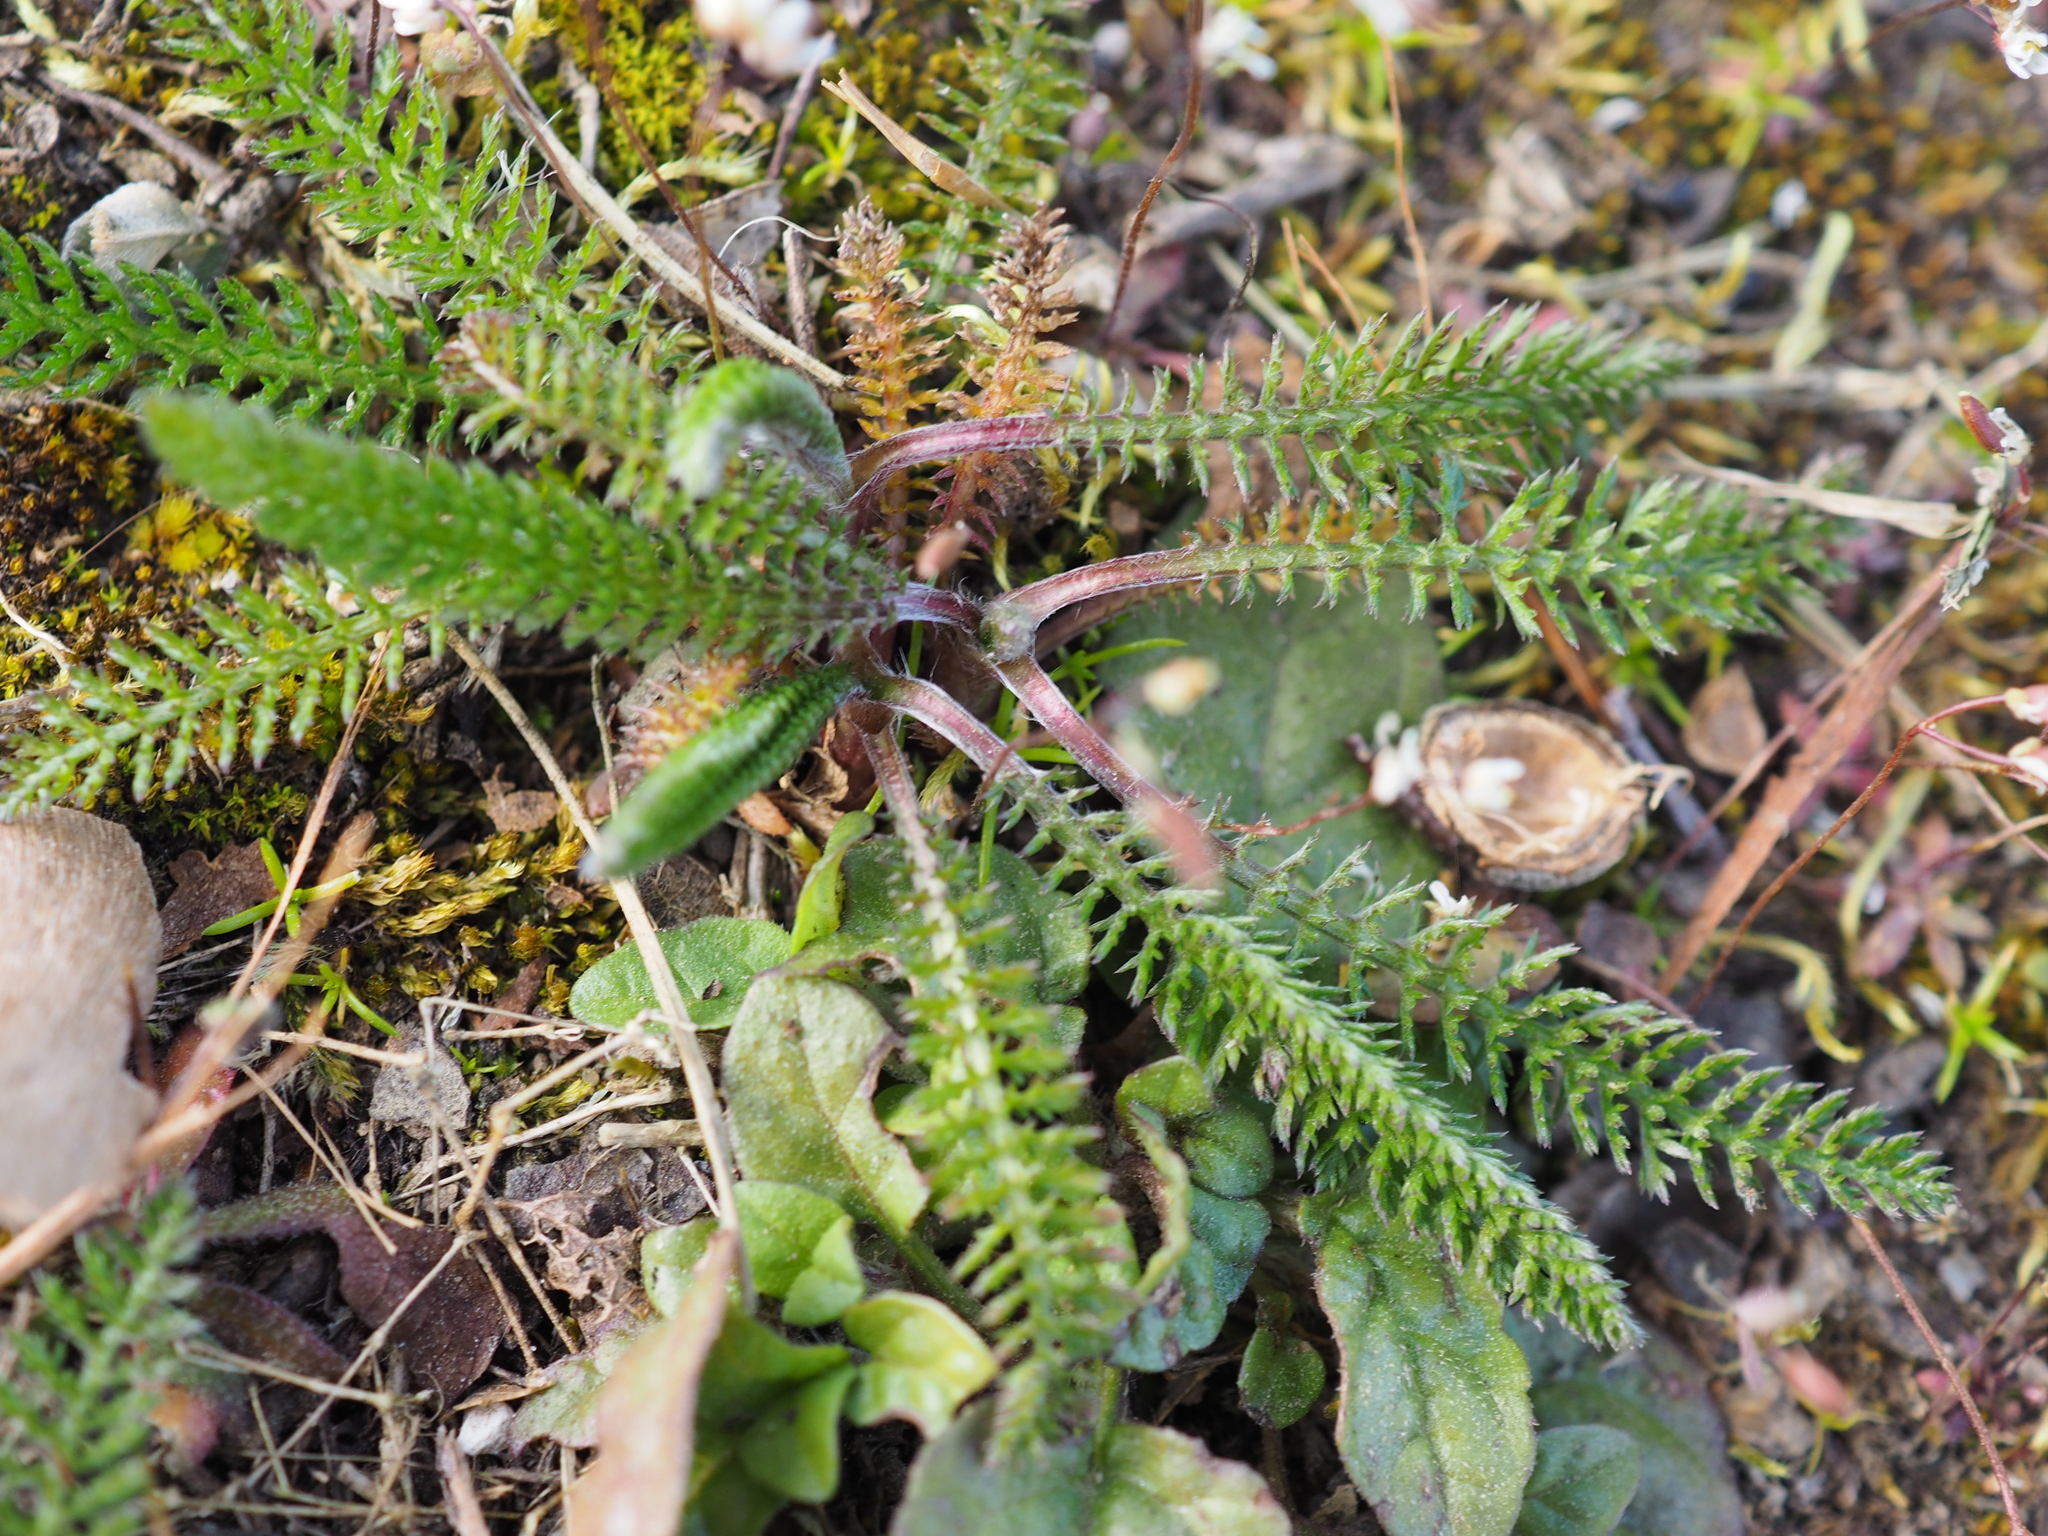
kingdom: Plantae
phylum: Tracheophyta
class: Magnoliopsida
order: Asterales
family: Asteraceae
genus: Achillea
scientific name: Achillea millefolium
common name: Yarrow
